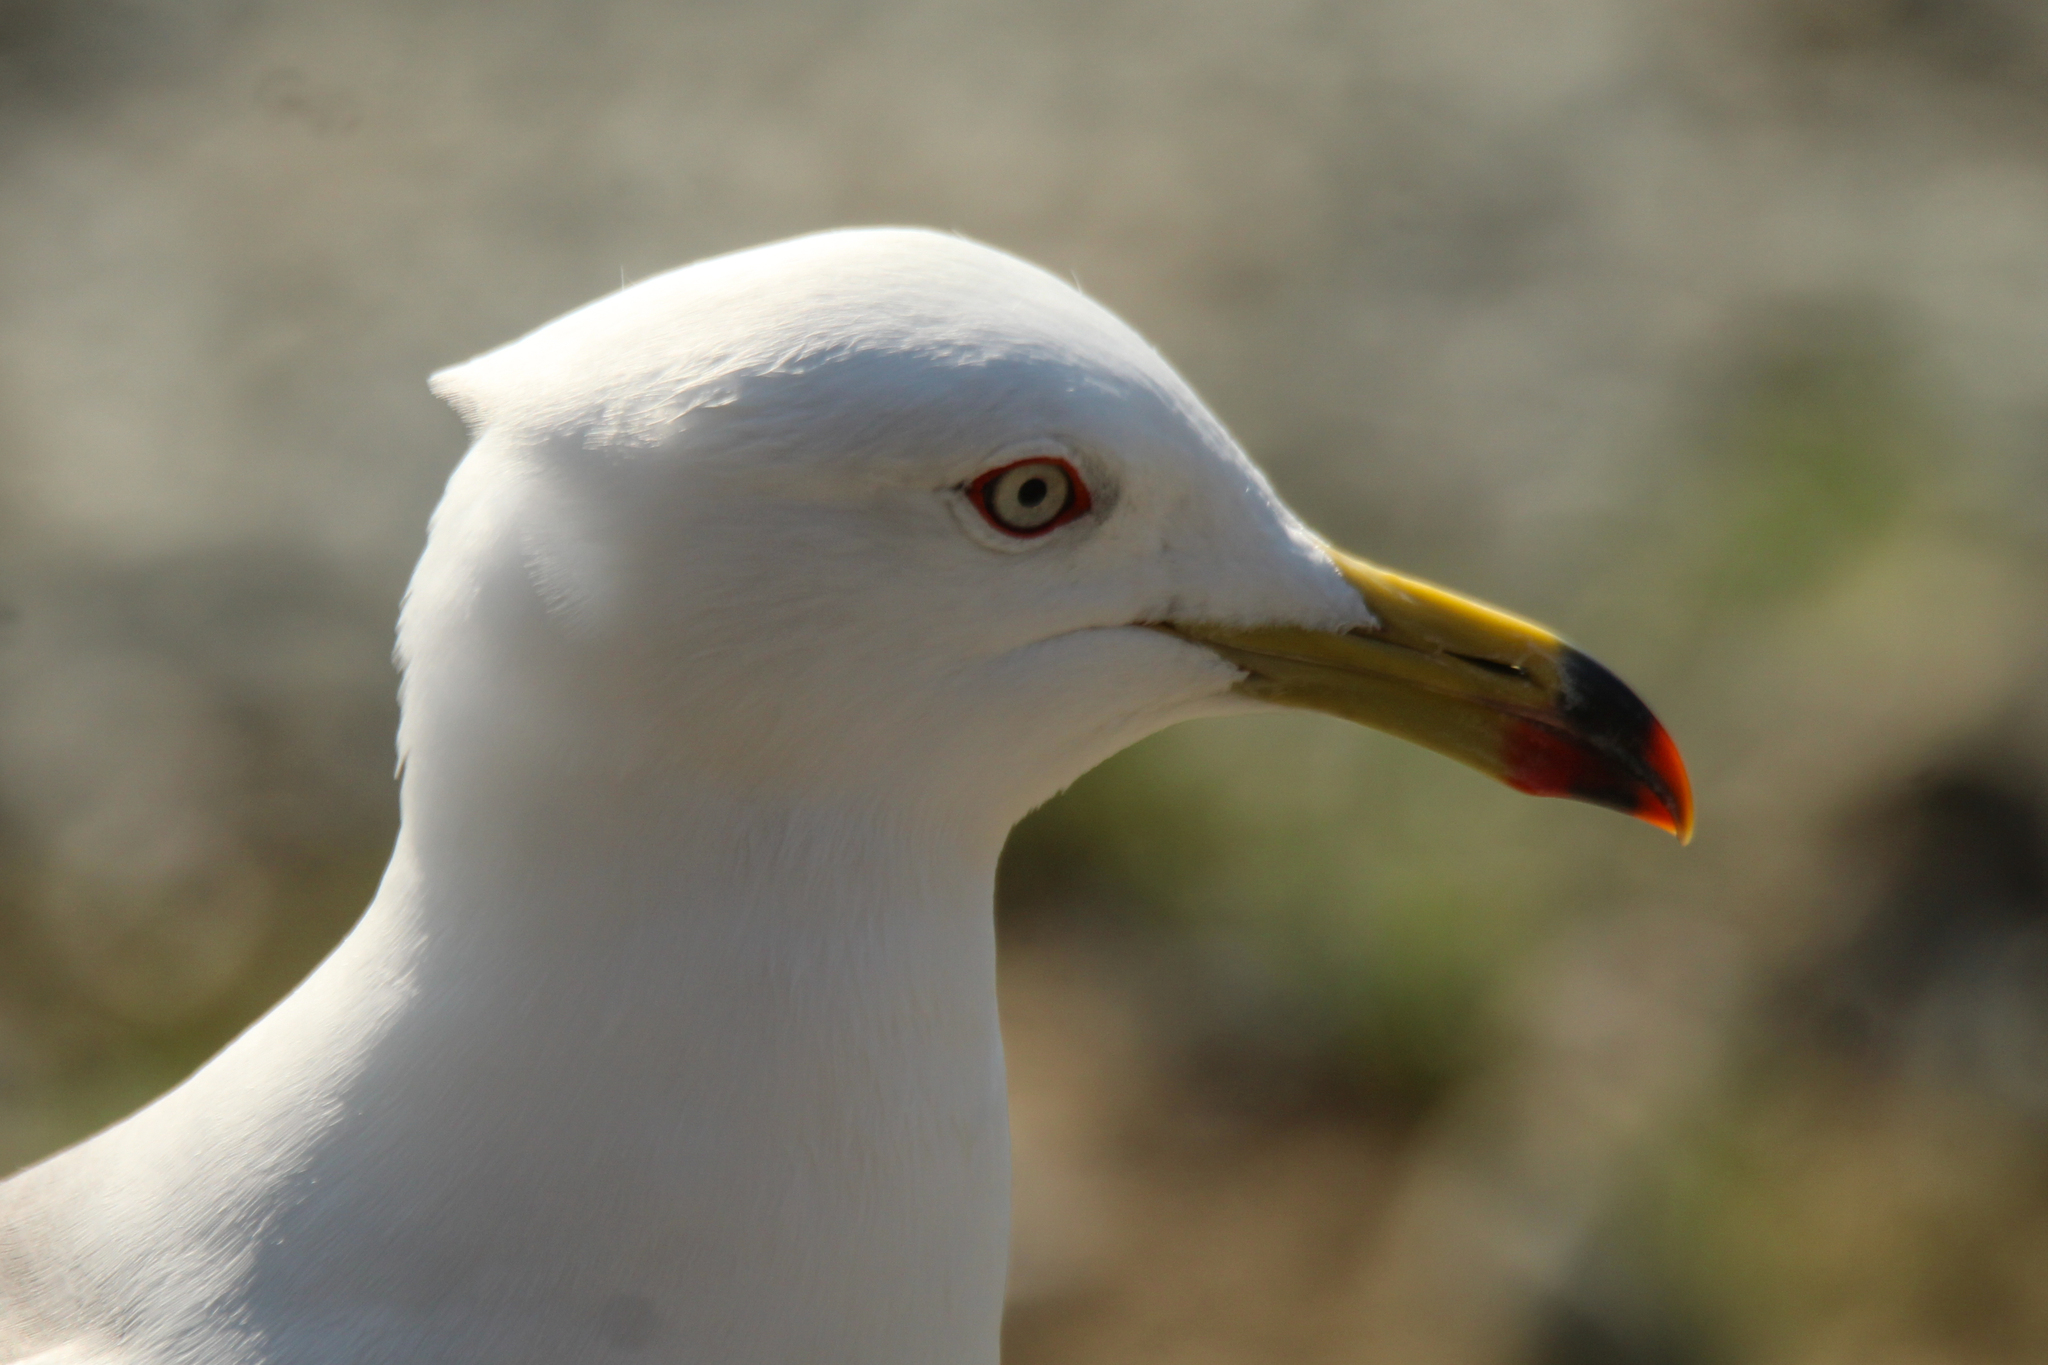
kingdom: Animalia
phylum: Chordata
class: Aves
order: Charadriiformes
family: Laridae
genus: Larus
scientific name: Larus crassirostris
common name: Black-tailed gull
